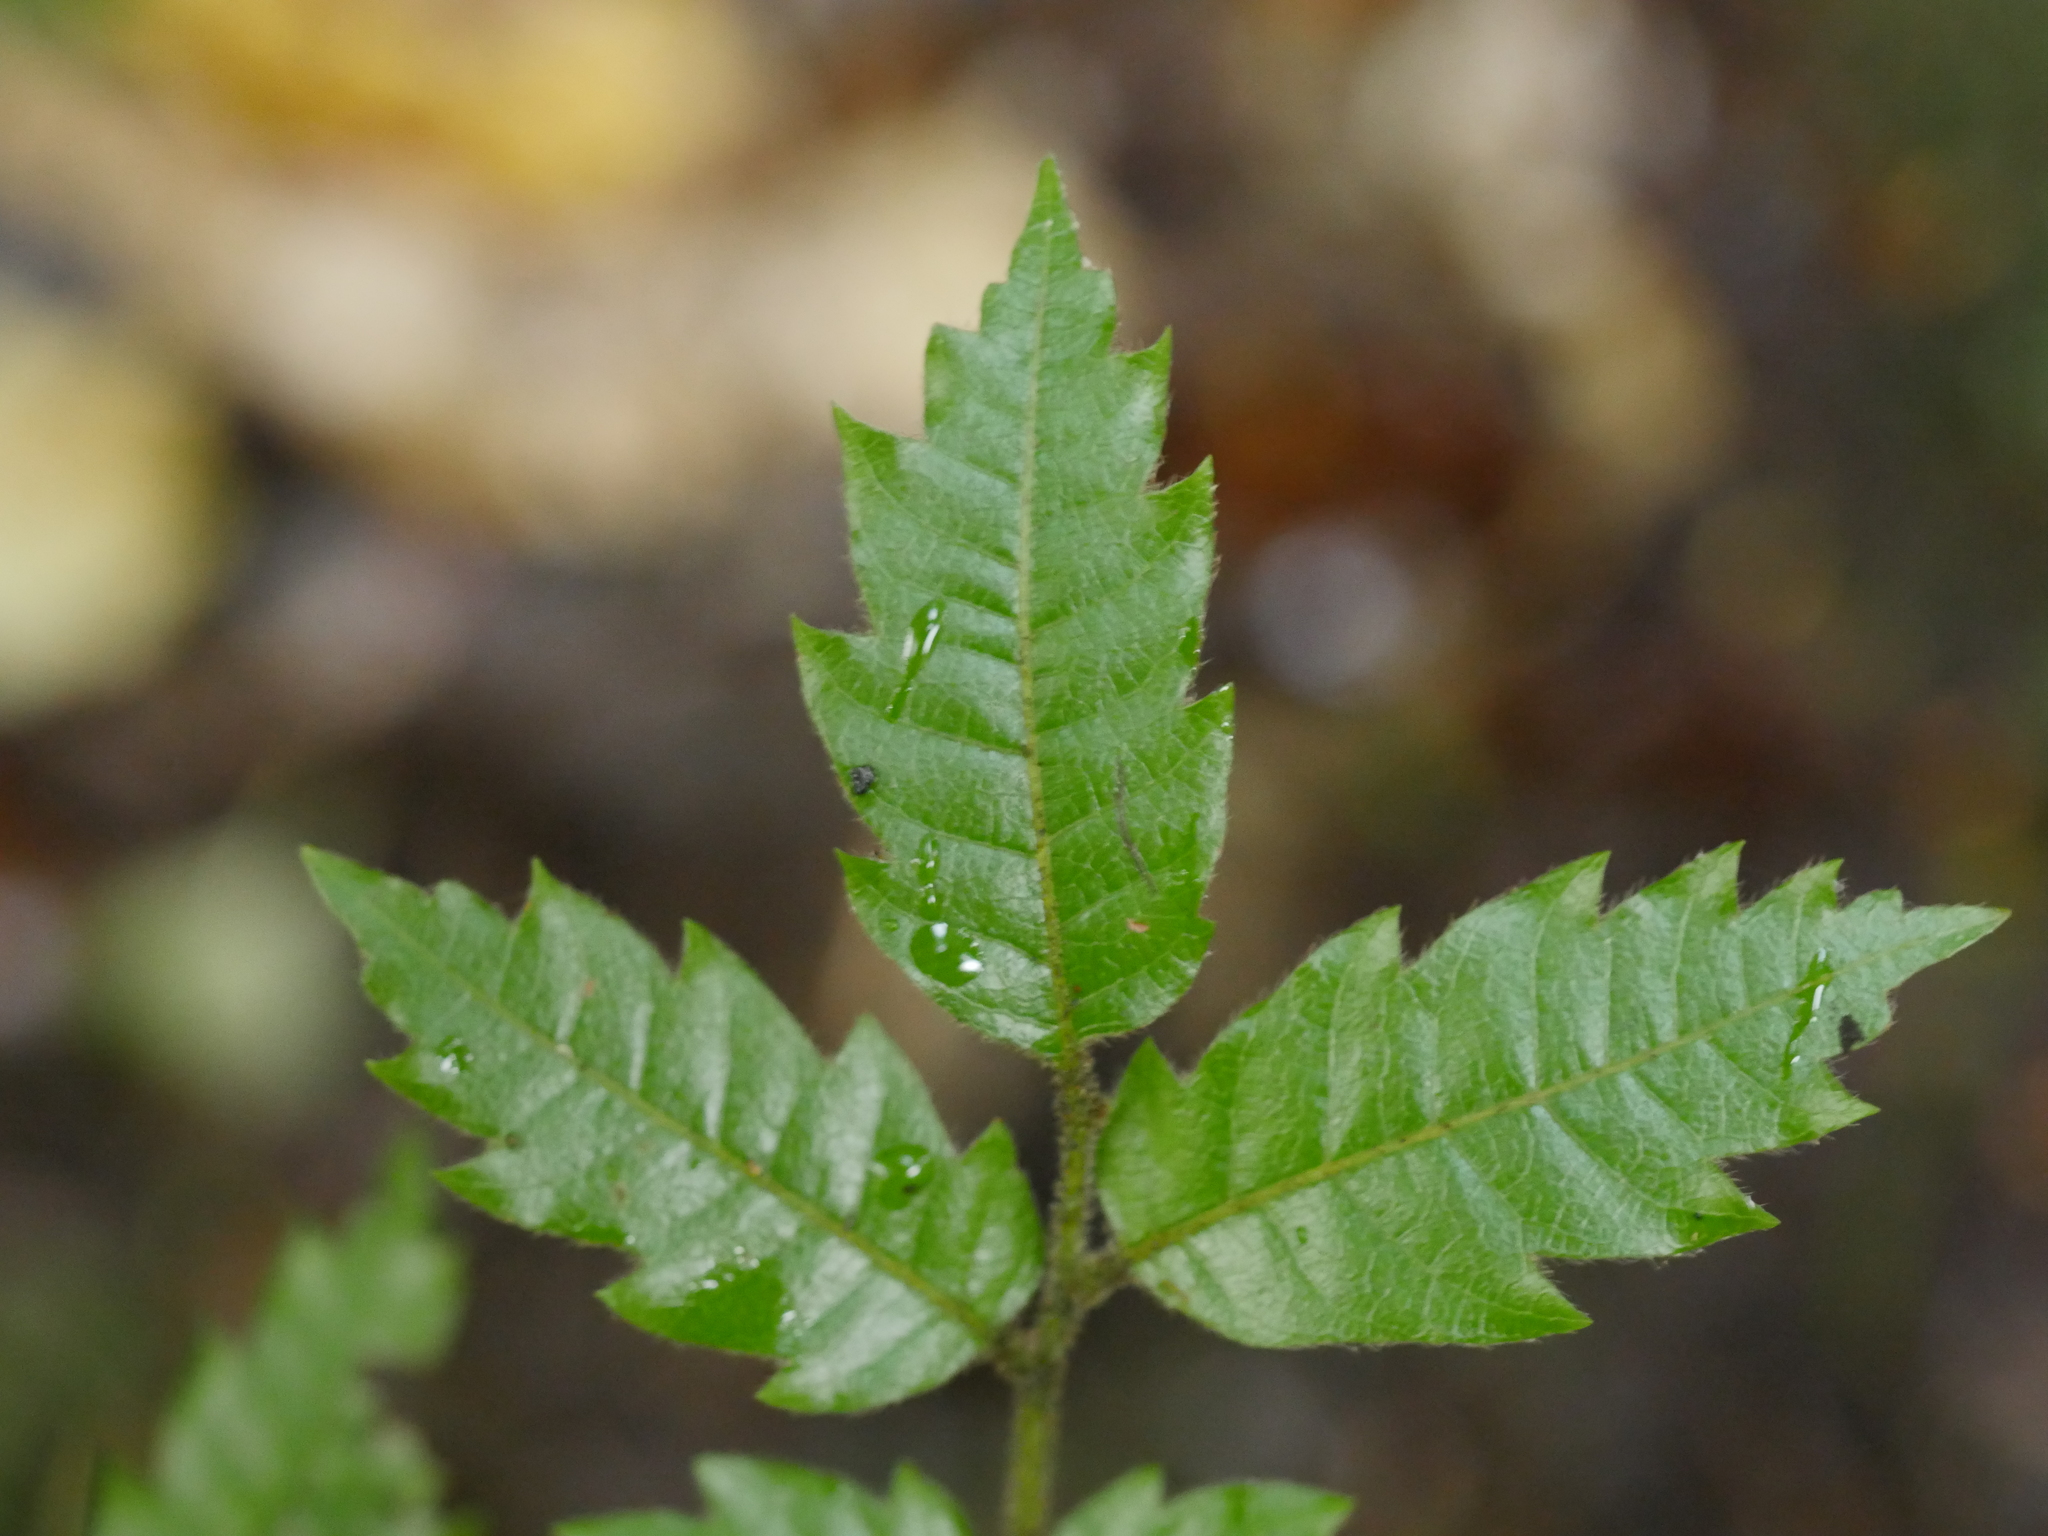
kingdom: Plantae
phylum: Tracheophyta
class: Magnoliopsida
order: Sapindales
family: Sapindaceae
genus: Alectryon
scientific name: Alectryon excelsus
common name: Three kings titoki
